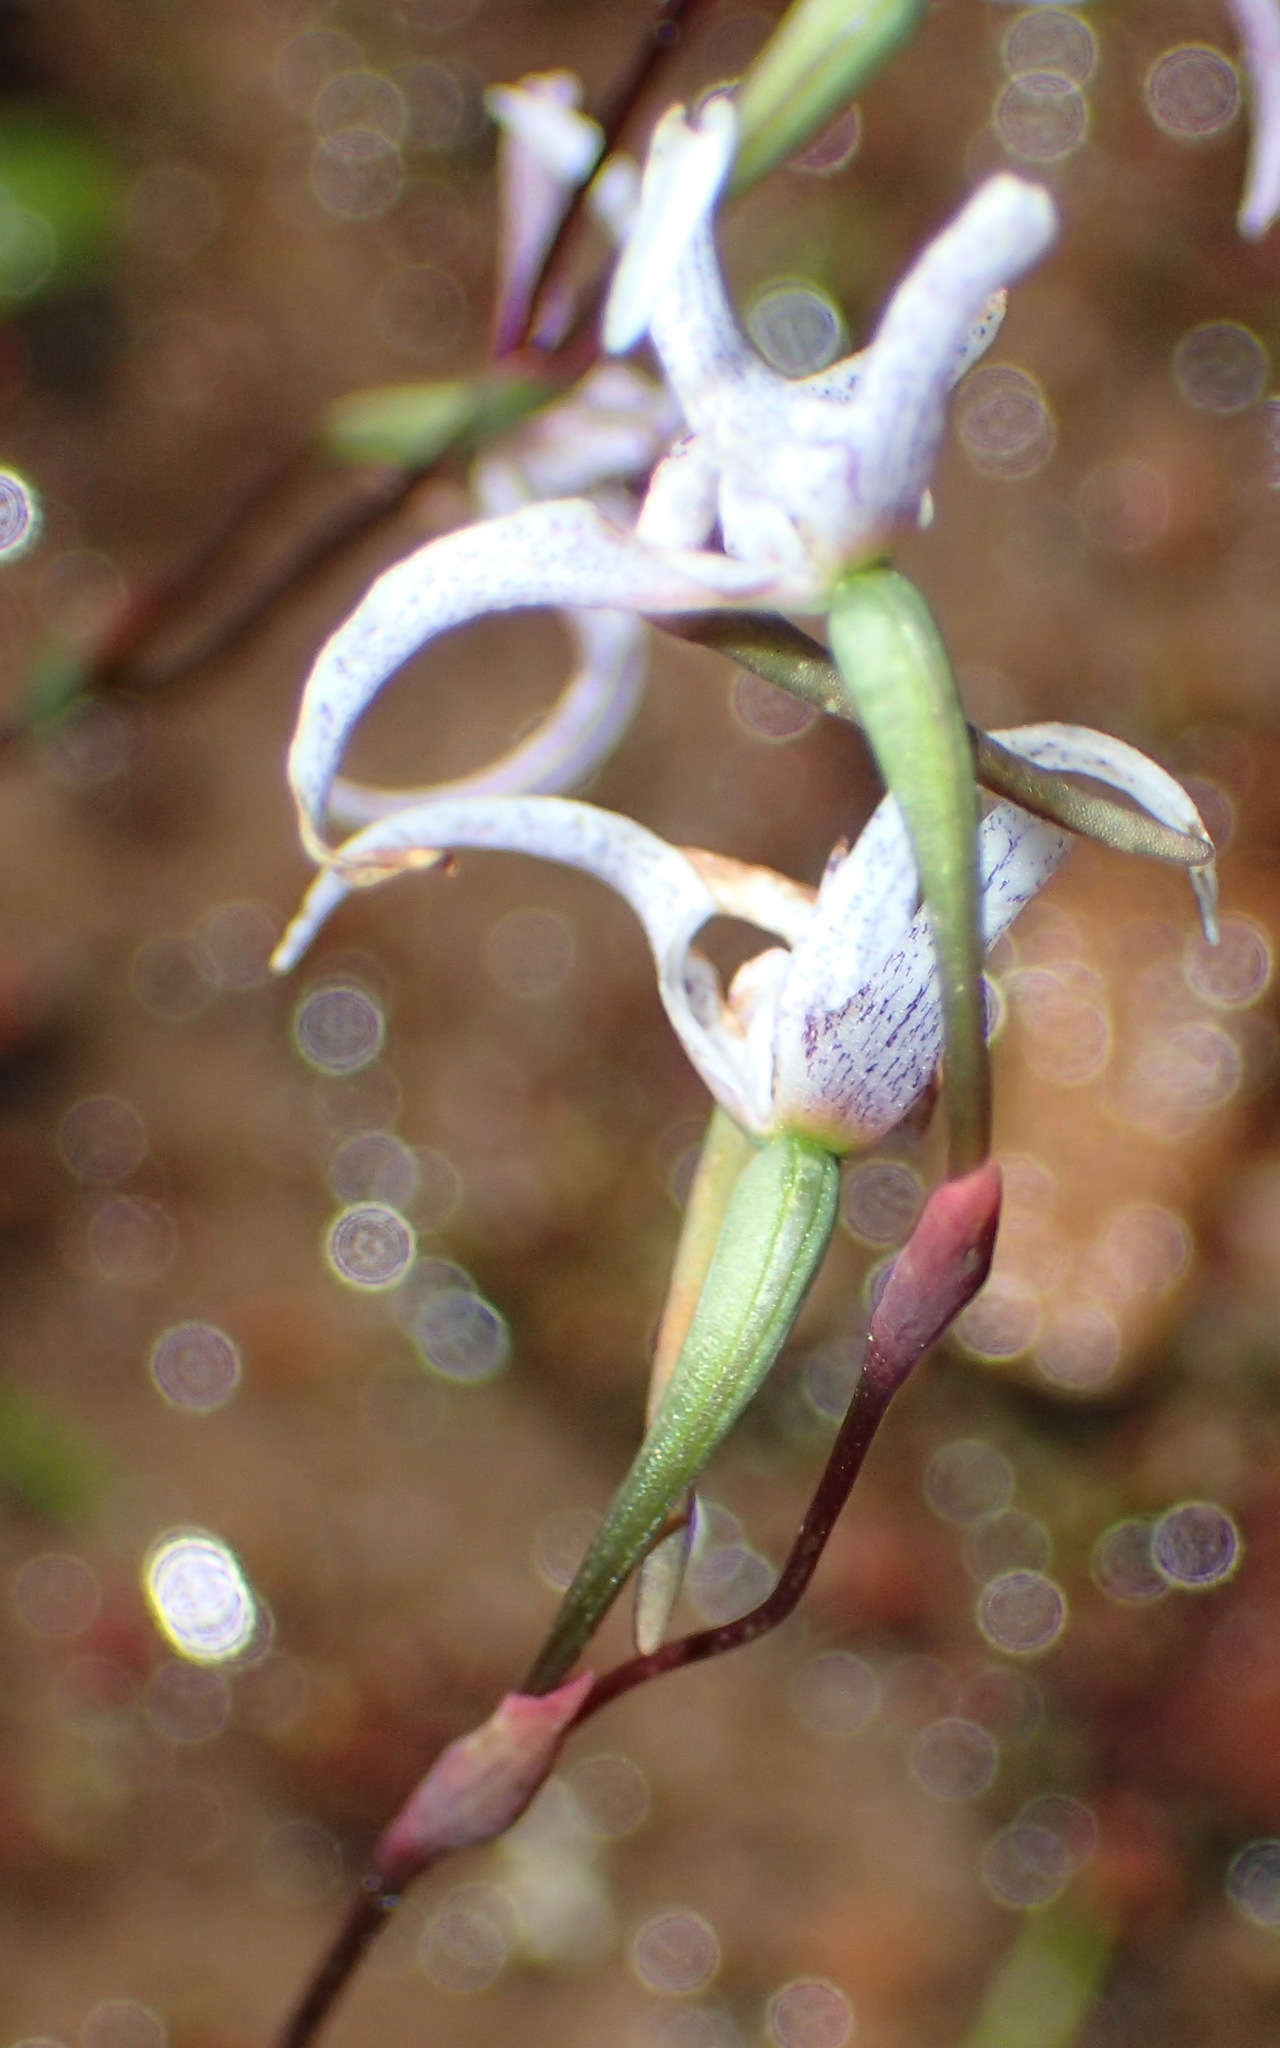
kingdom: Plantae
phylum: Tracheophyta
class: Liliopsida
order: Asparagales
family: Orchidaceae
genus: Disa
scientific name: Disa biflora
